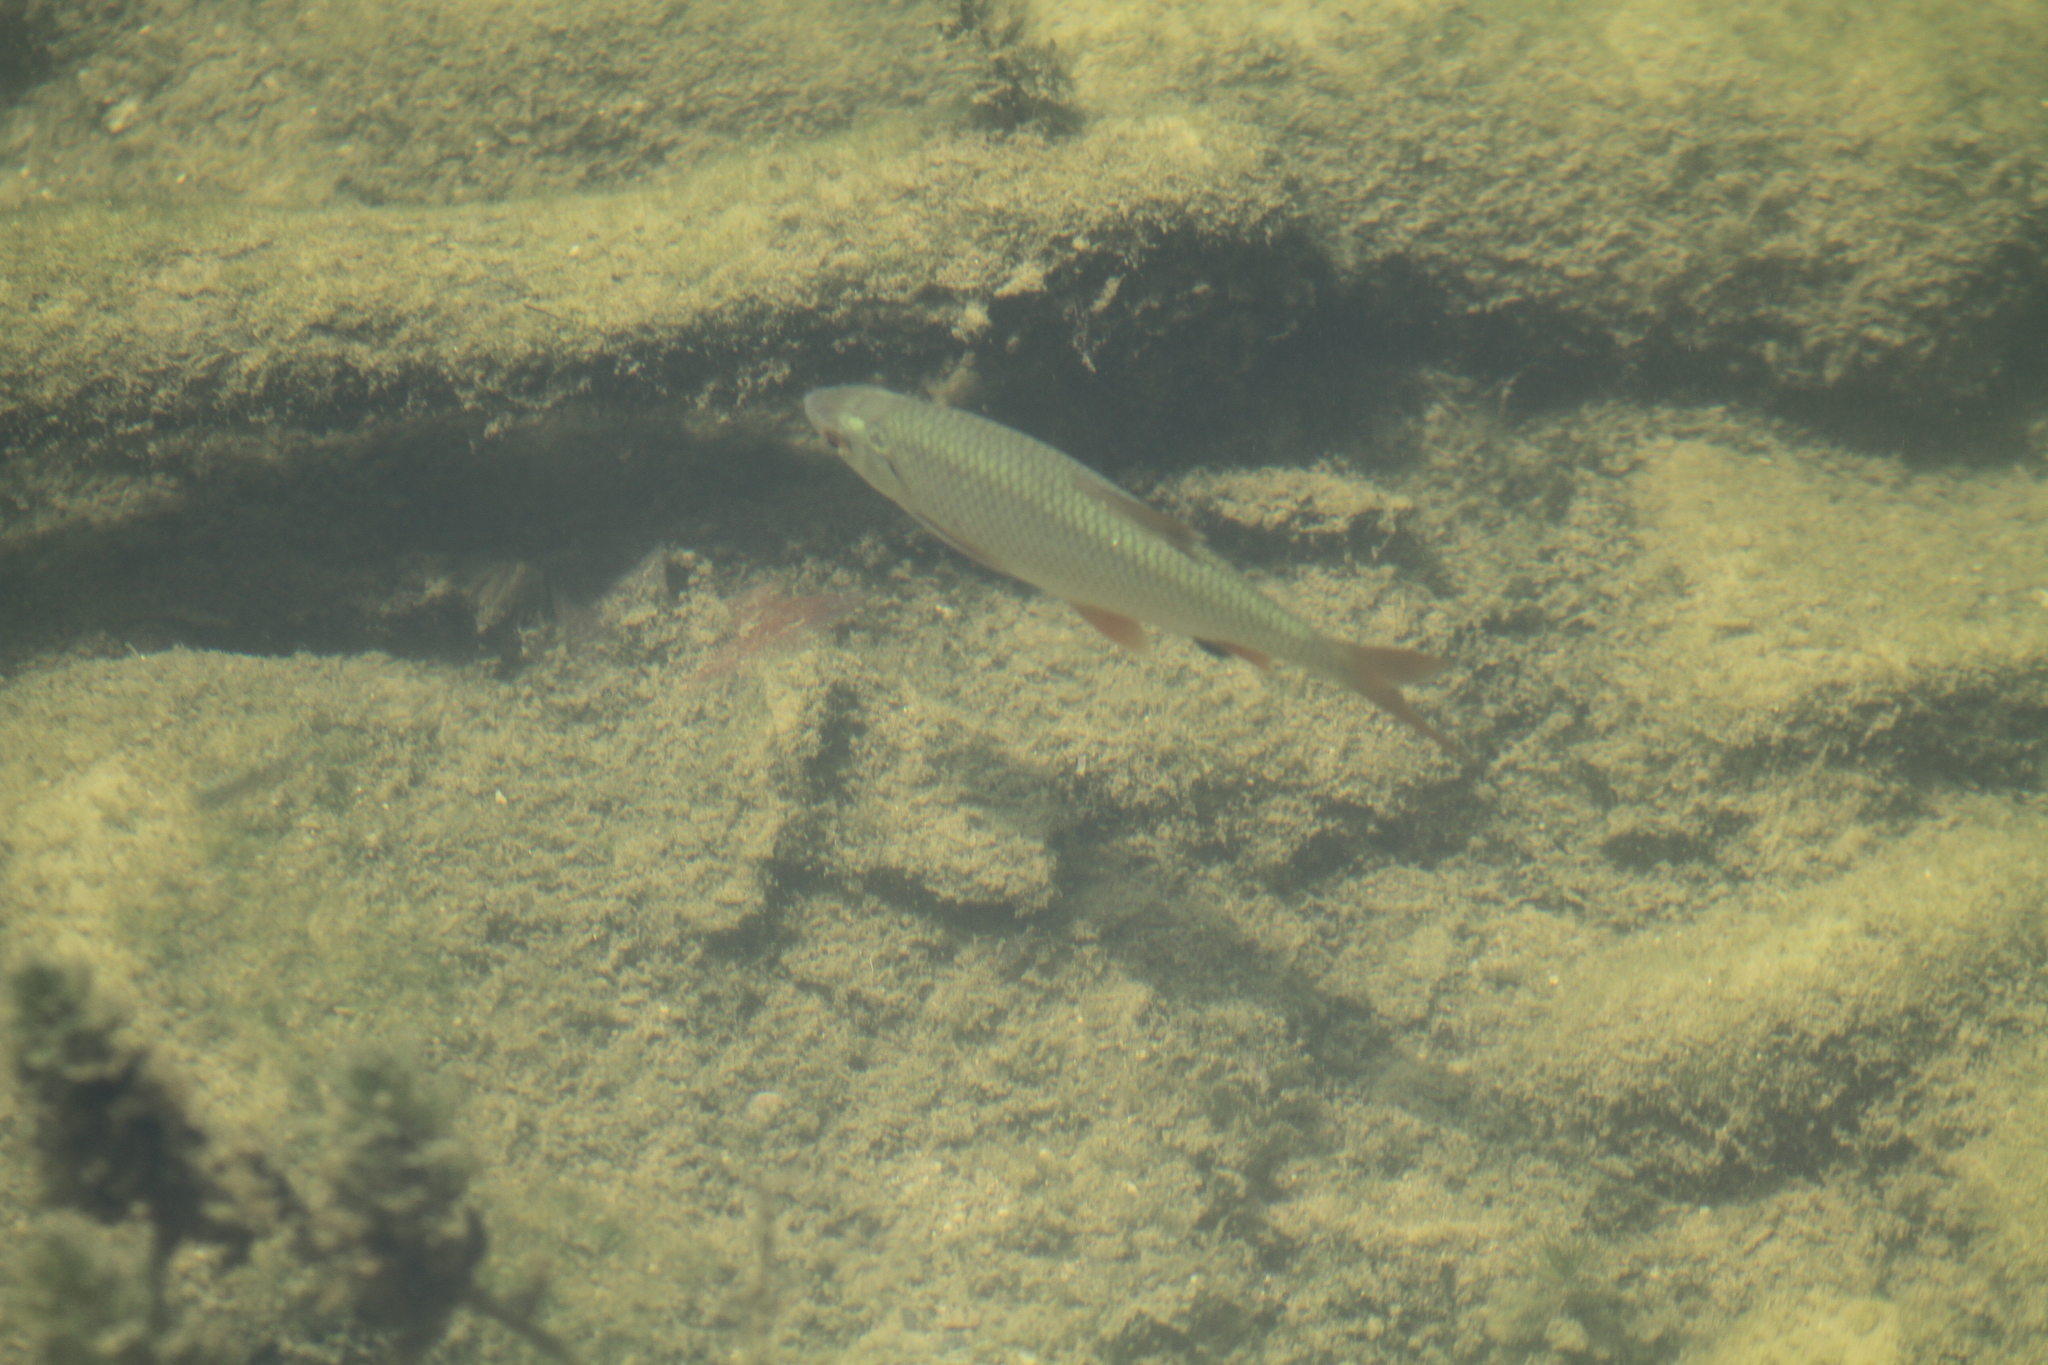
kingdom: Animalia
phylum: Chordata
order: Cypriniformes
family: Cyprinidae
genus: Rutilus
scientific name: Rutilus rutilus
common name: Roach
